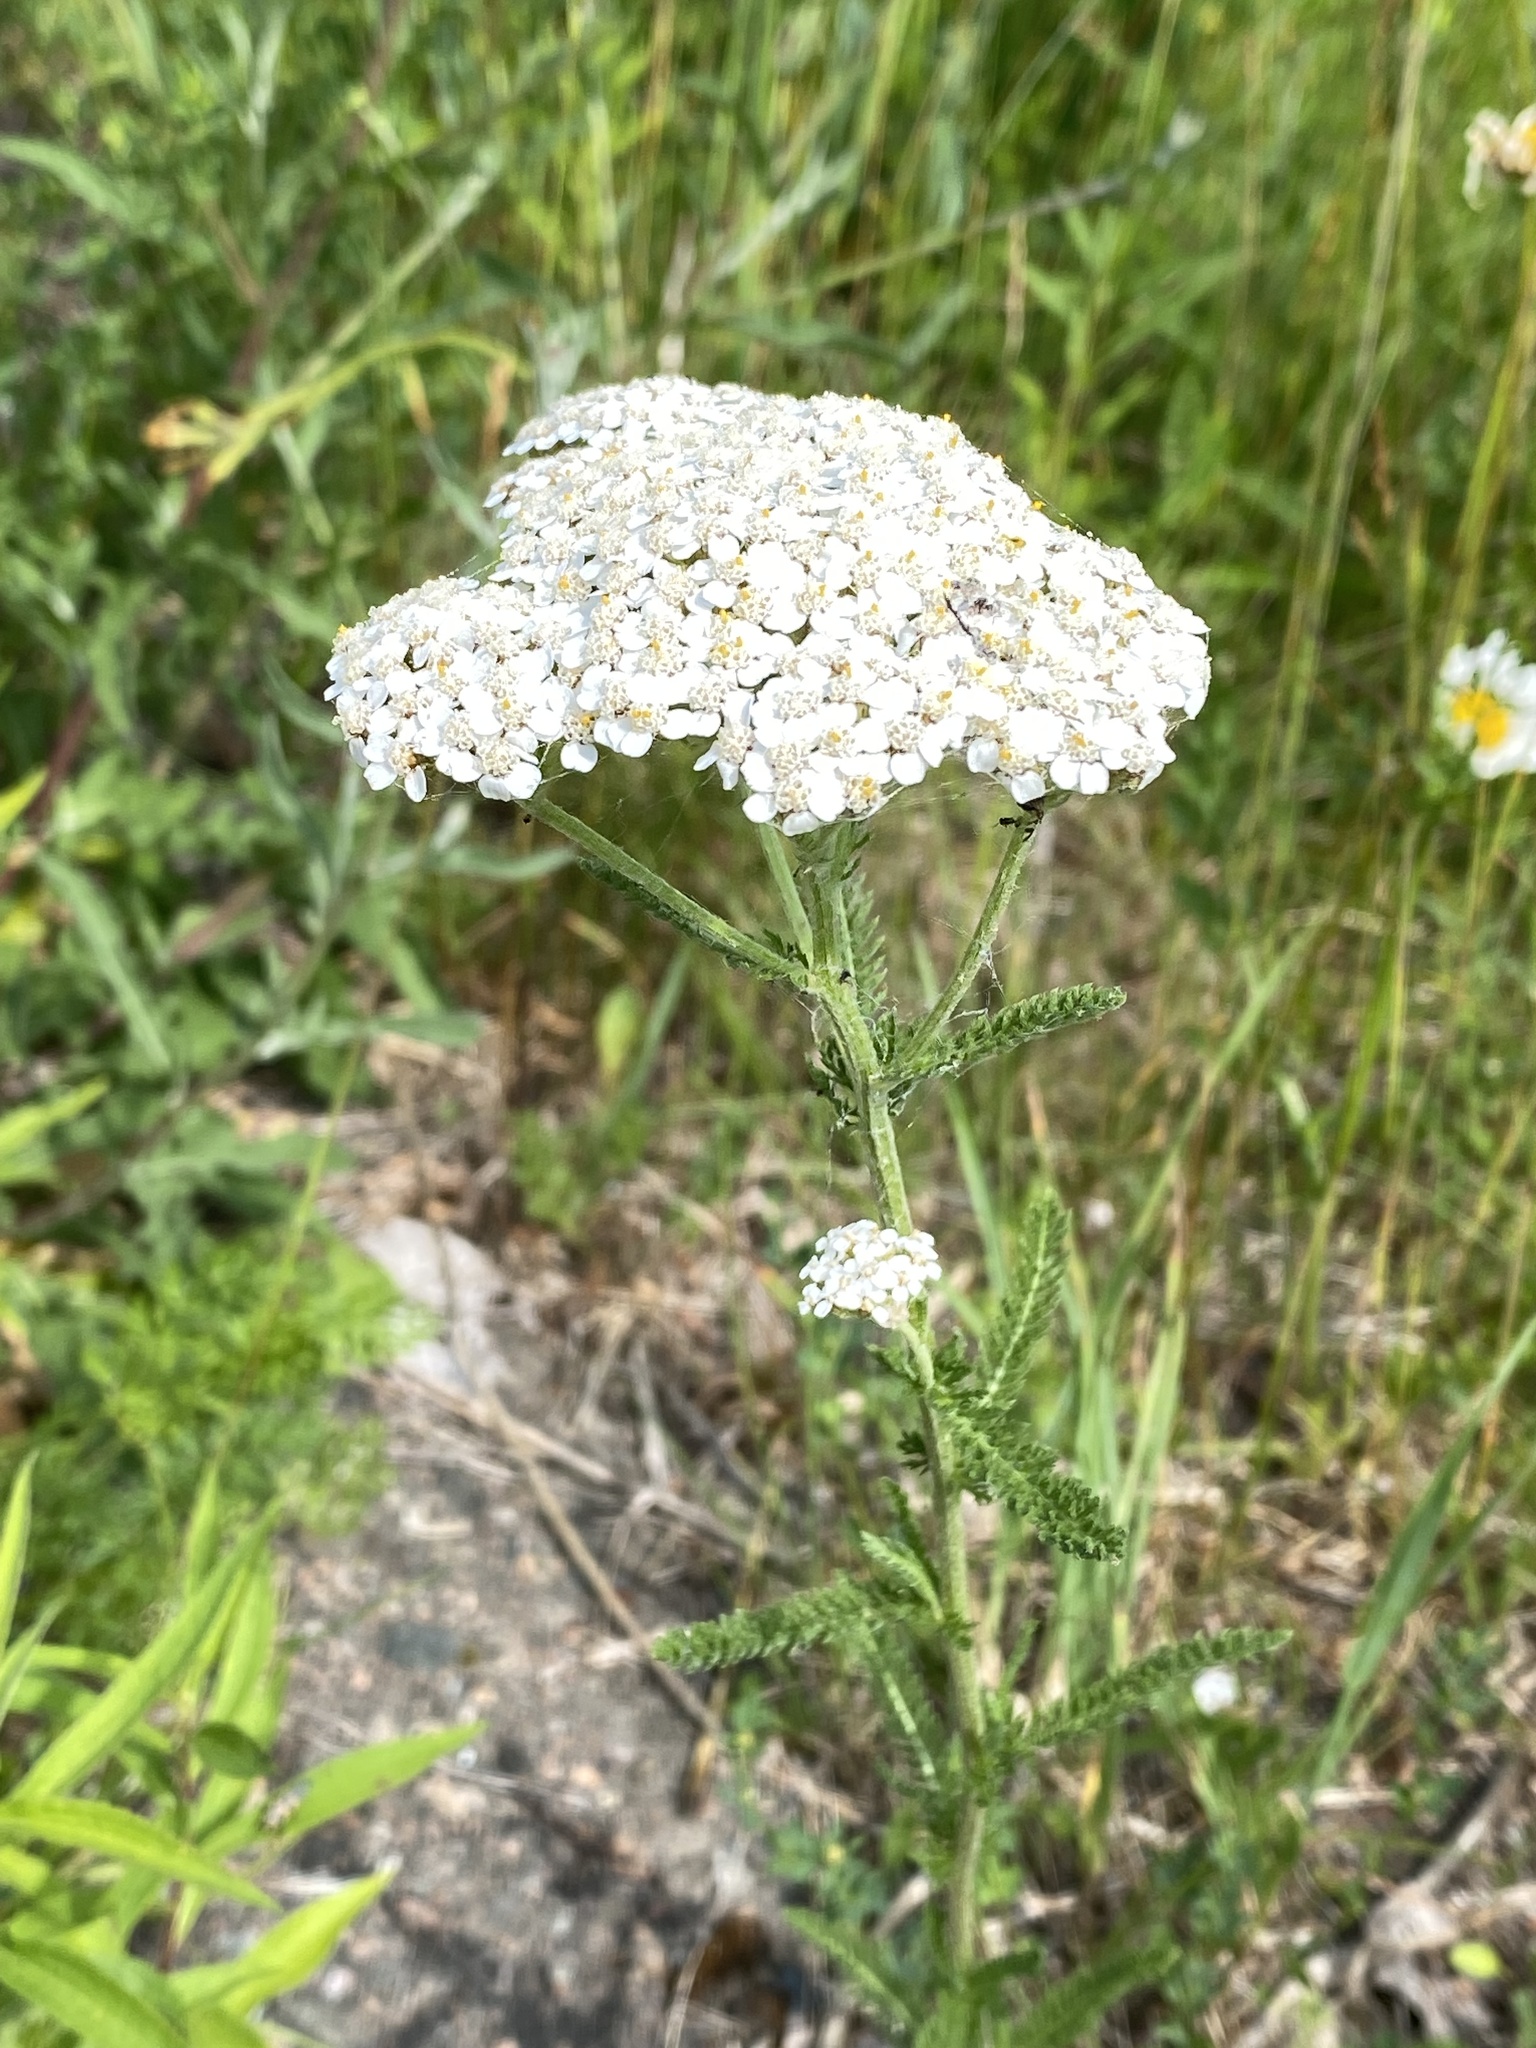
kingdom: Plantae
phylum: Tracheophyta
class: Magnoliopsida
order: Asterales
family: Asteraceae
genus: Achillea
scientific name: Achillea millefolium
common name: Yarrow
